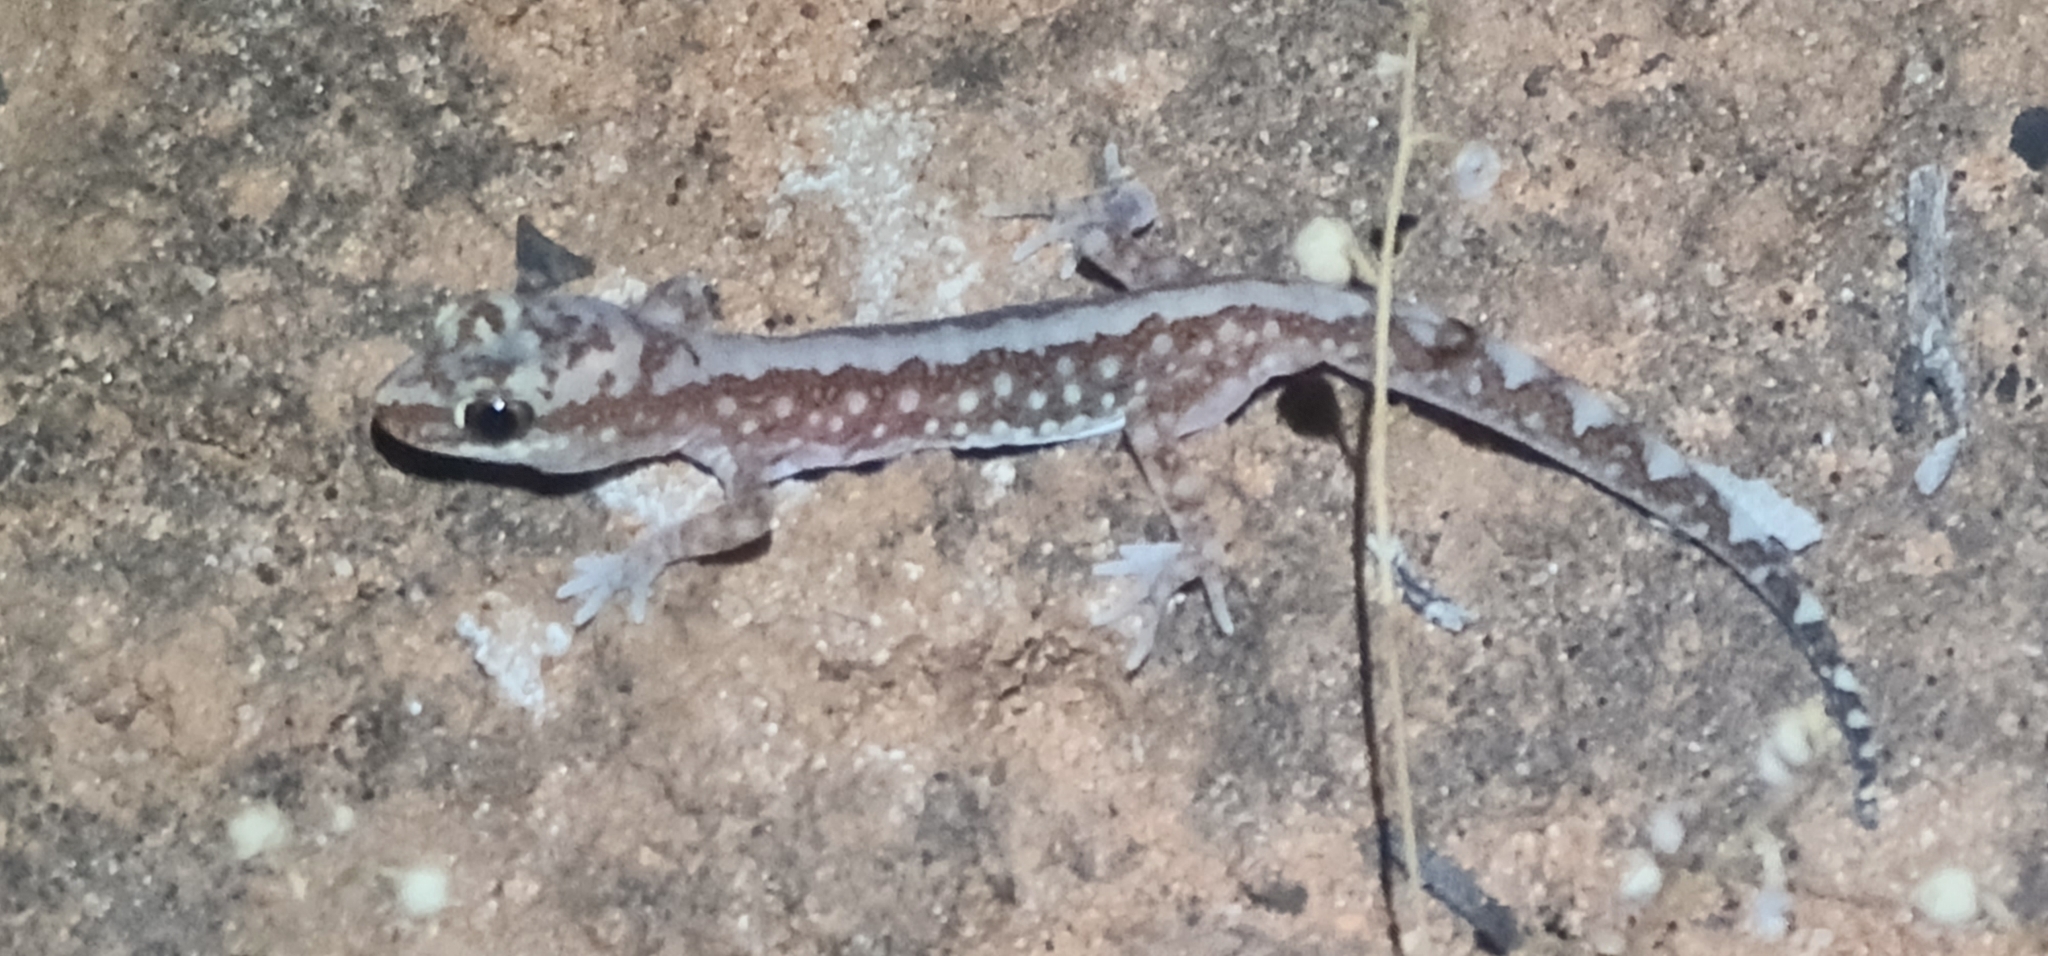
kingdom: Animalia
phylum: Chordata
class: Squamata
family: Diplodactylidae
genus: Lucasium
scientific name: Lucasium damaeum
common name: Beaded gecko
